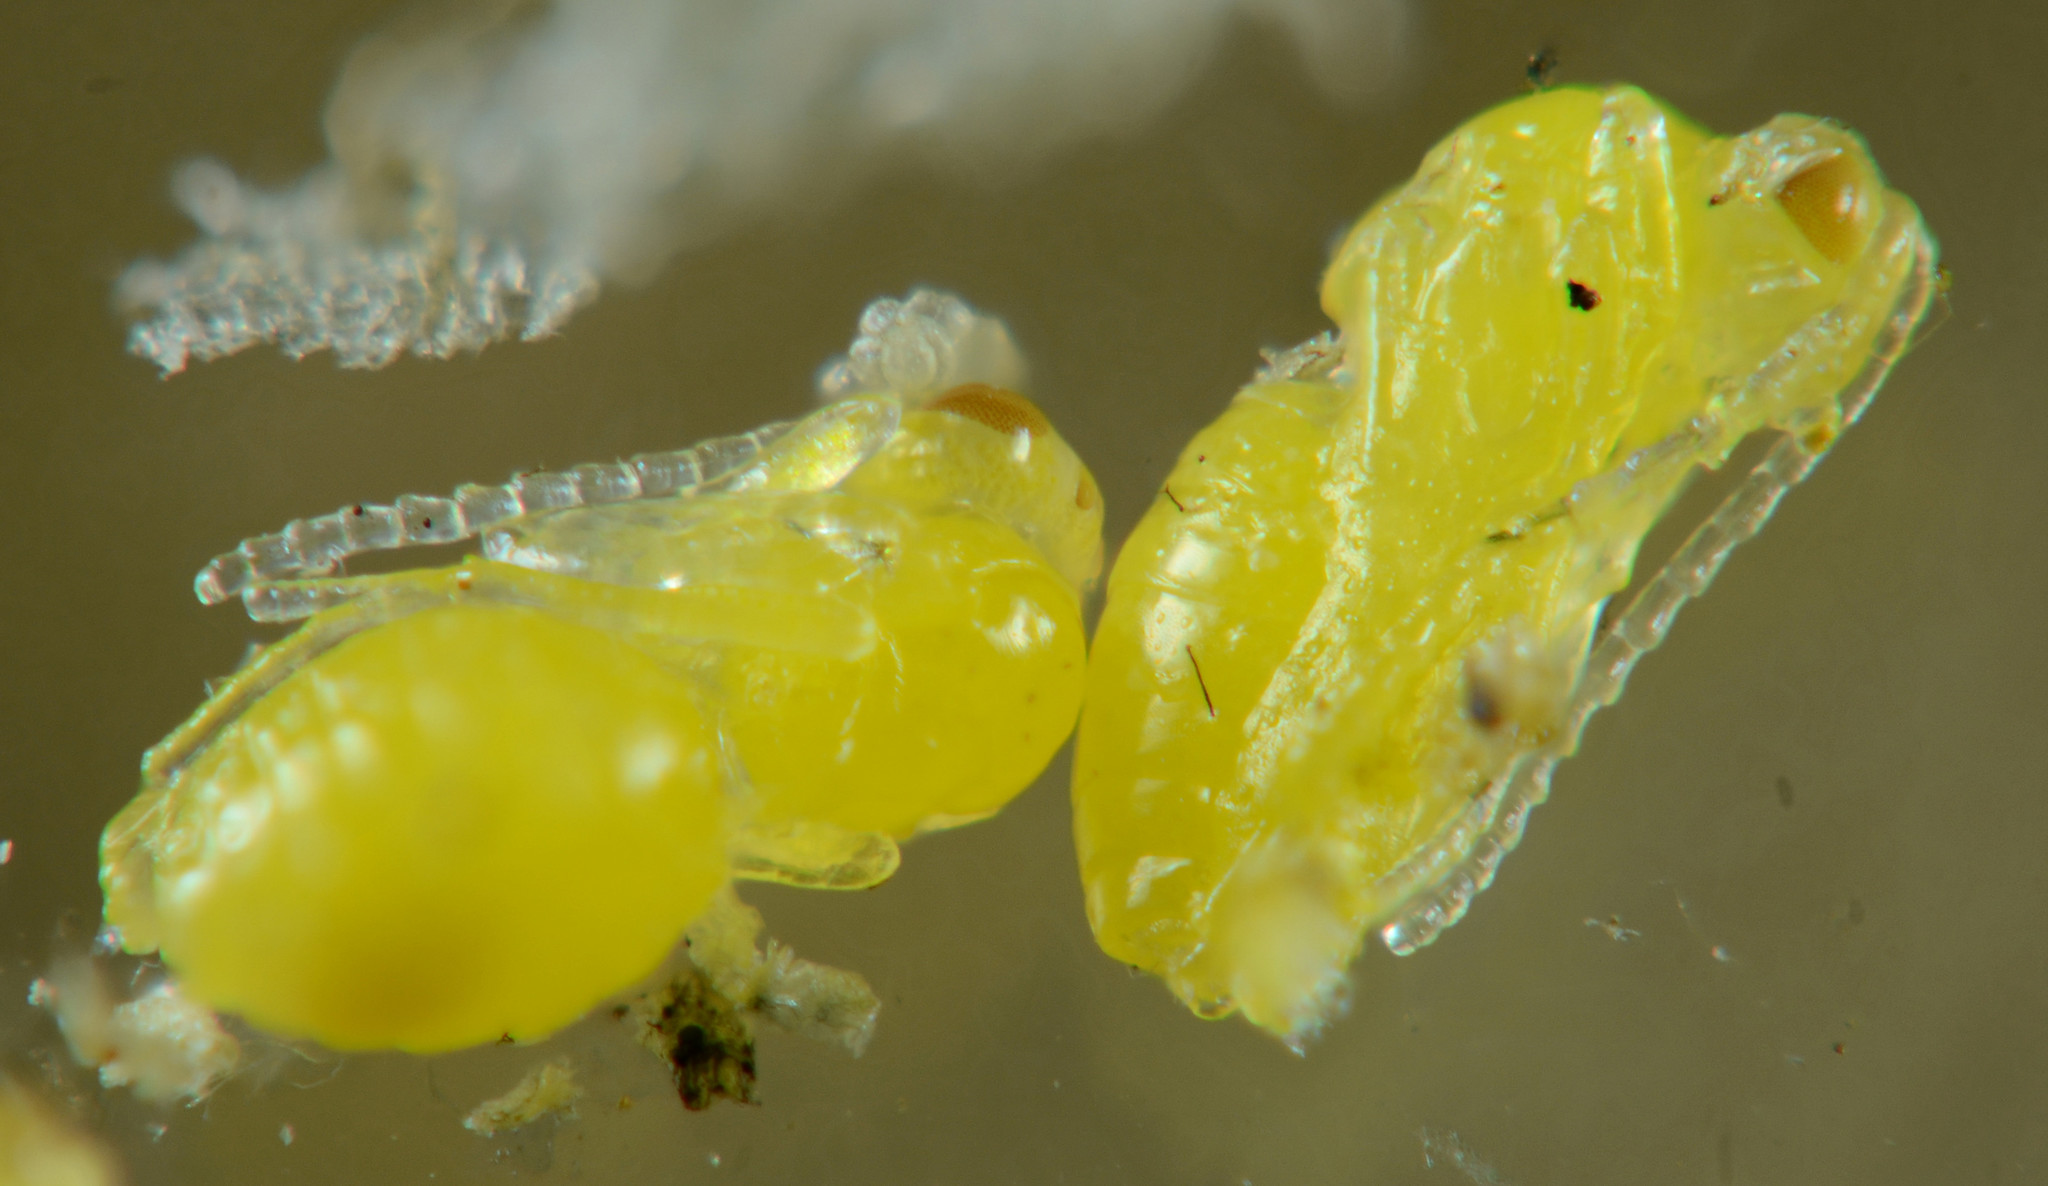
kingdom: Animalia
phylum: Arthropoda
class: Insecta
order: Hymenoptera
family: Cynipidae
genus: Aulacidea
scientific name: Aulacidea acroptilonica
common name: Russian knapweed gall wasp
